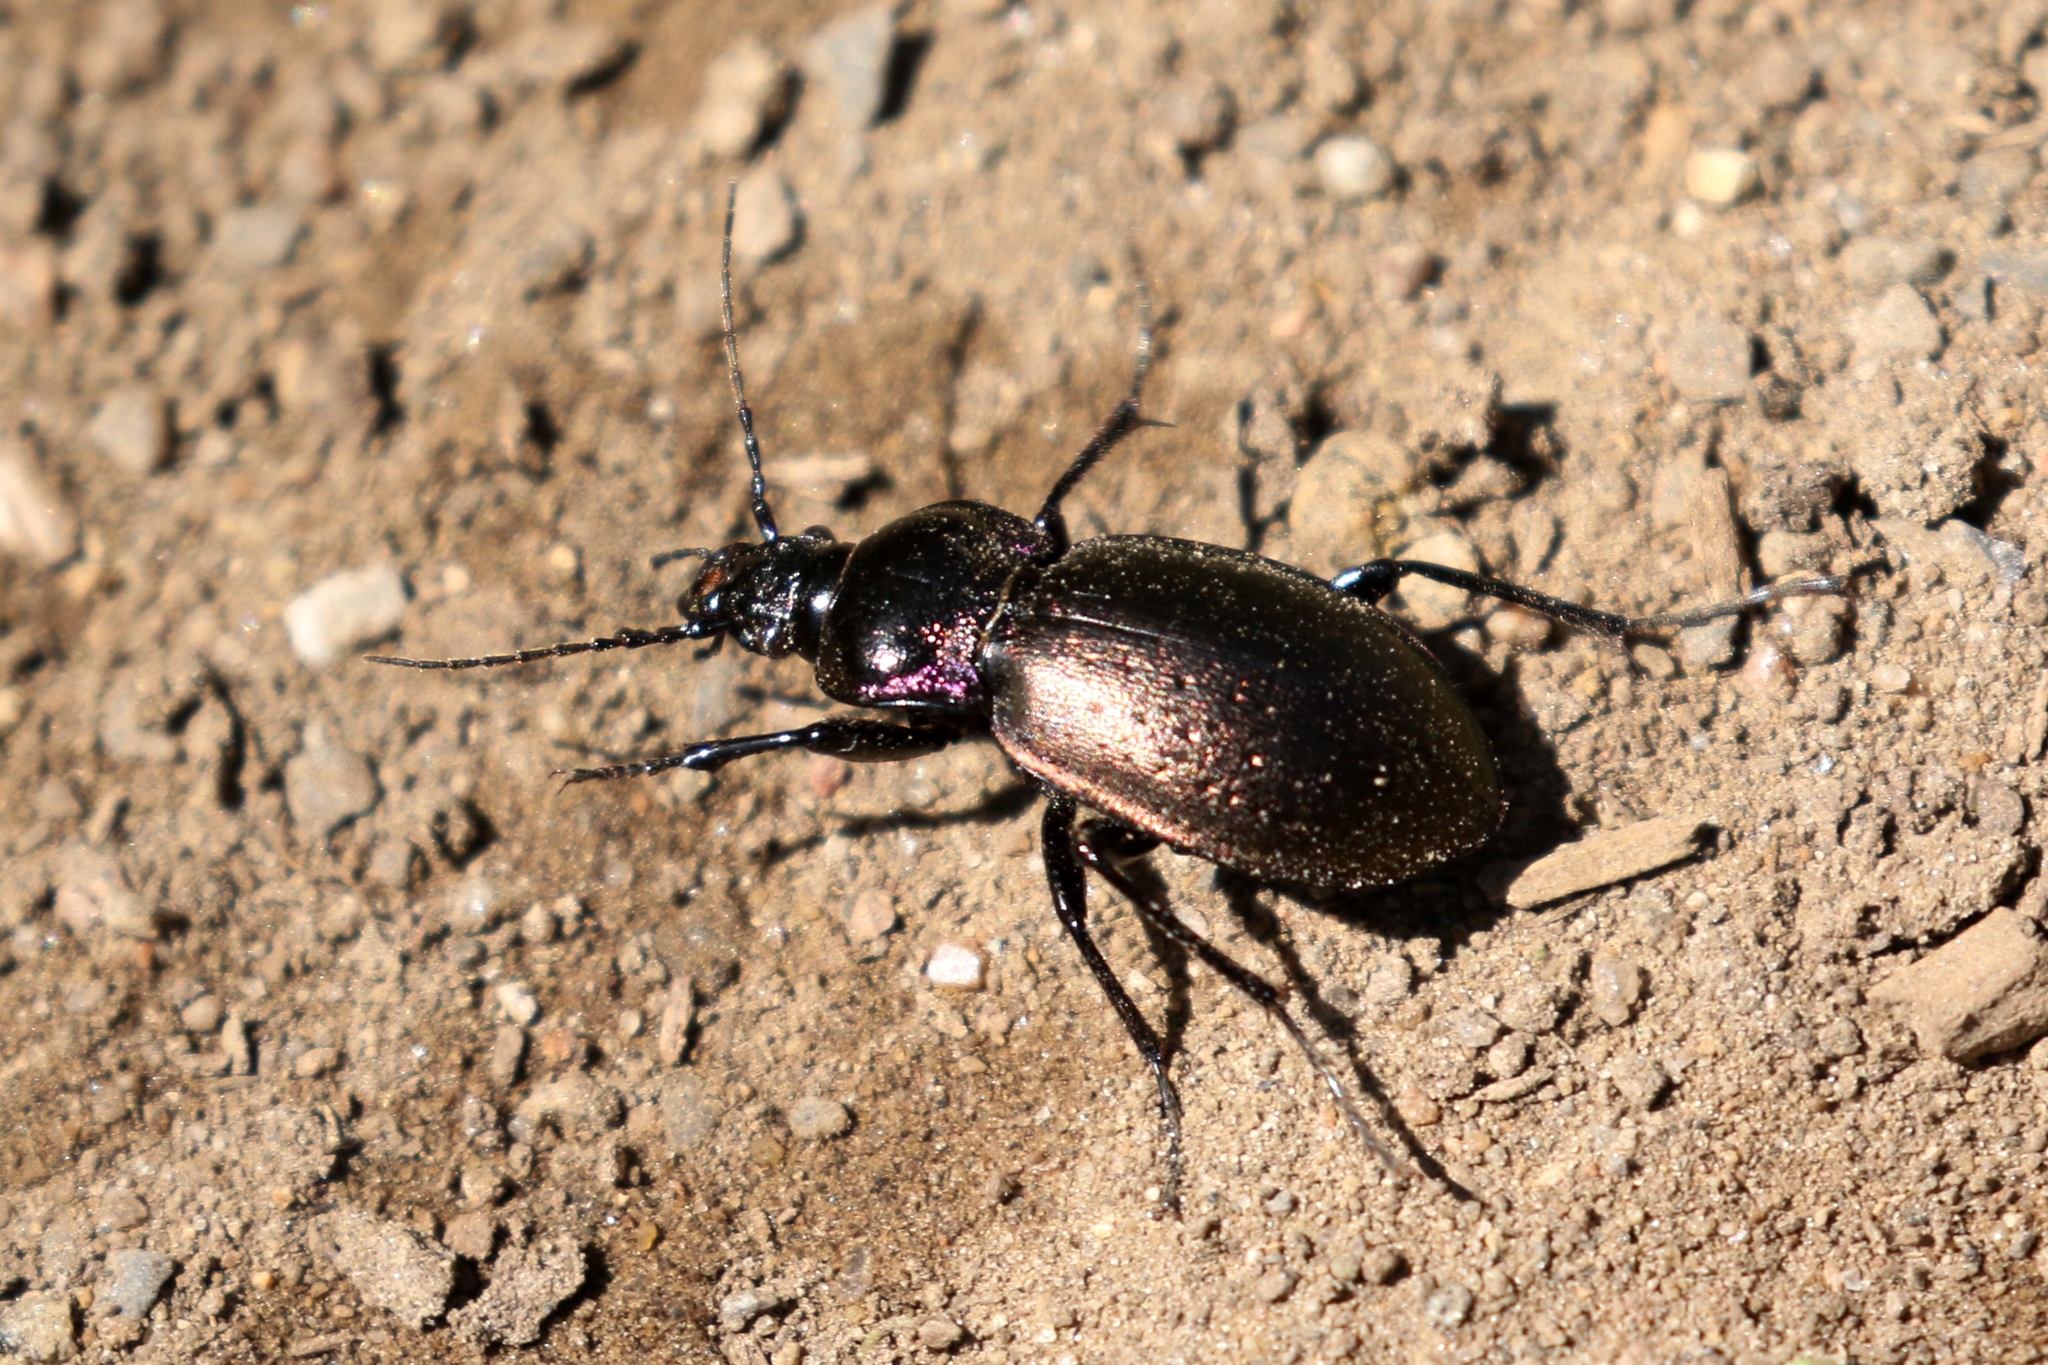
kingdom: Animalia
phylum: Arthropoda
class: Insecta
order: Coleoptera
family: Carabidae
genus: Carabus
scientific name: Carabus nemoralis
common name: European ground beetle
